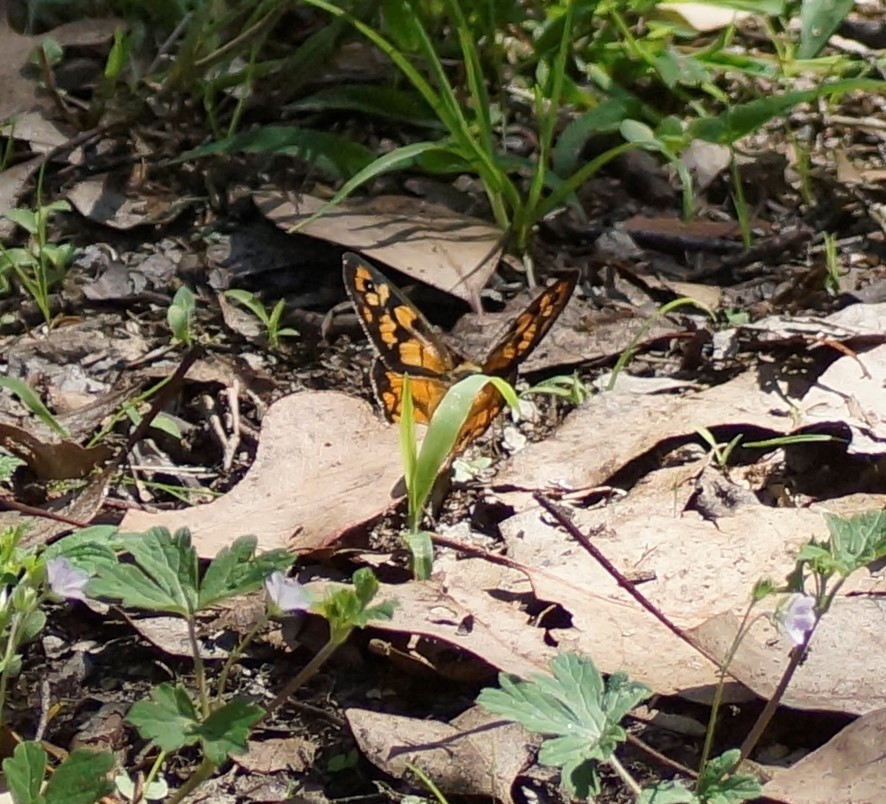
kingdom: Animalia
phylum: Arthropoda
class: Insecta
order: Lepidoptera
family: Nymphalidae
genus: Heteronympha
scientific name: Heteronympha penelope
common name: Shouldered brown
